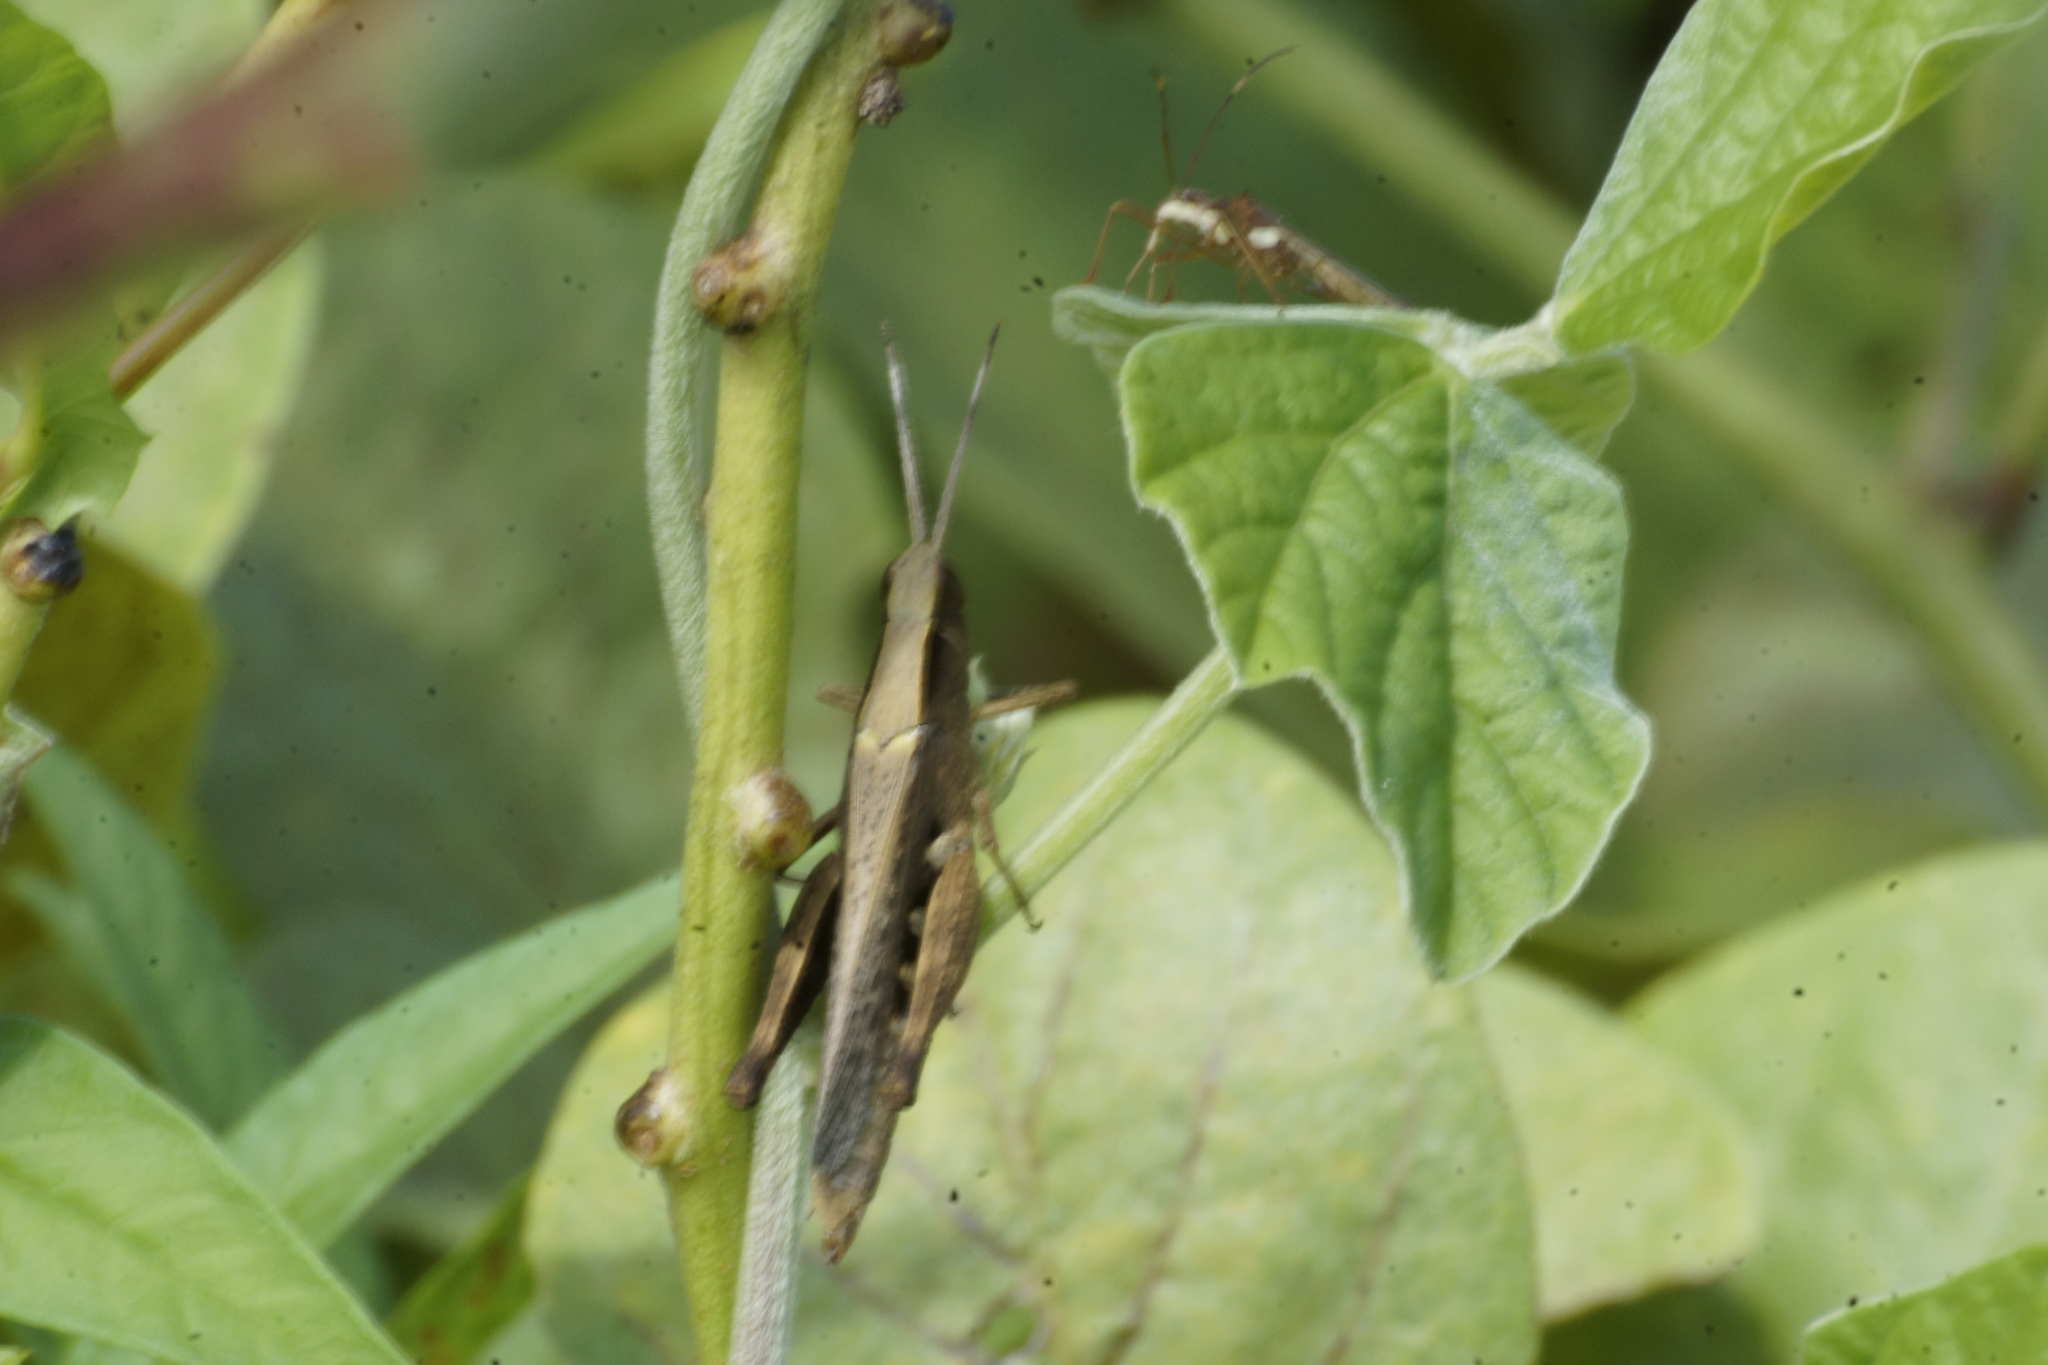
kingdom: Animalia
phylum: Arthropoda
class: Insecta
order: Orthoptera
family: Acrididae
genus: Stenocatantops
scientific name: Stenocatantops angustifrons
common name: Common tropical sharptail
